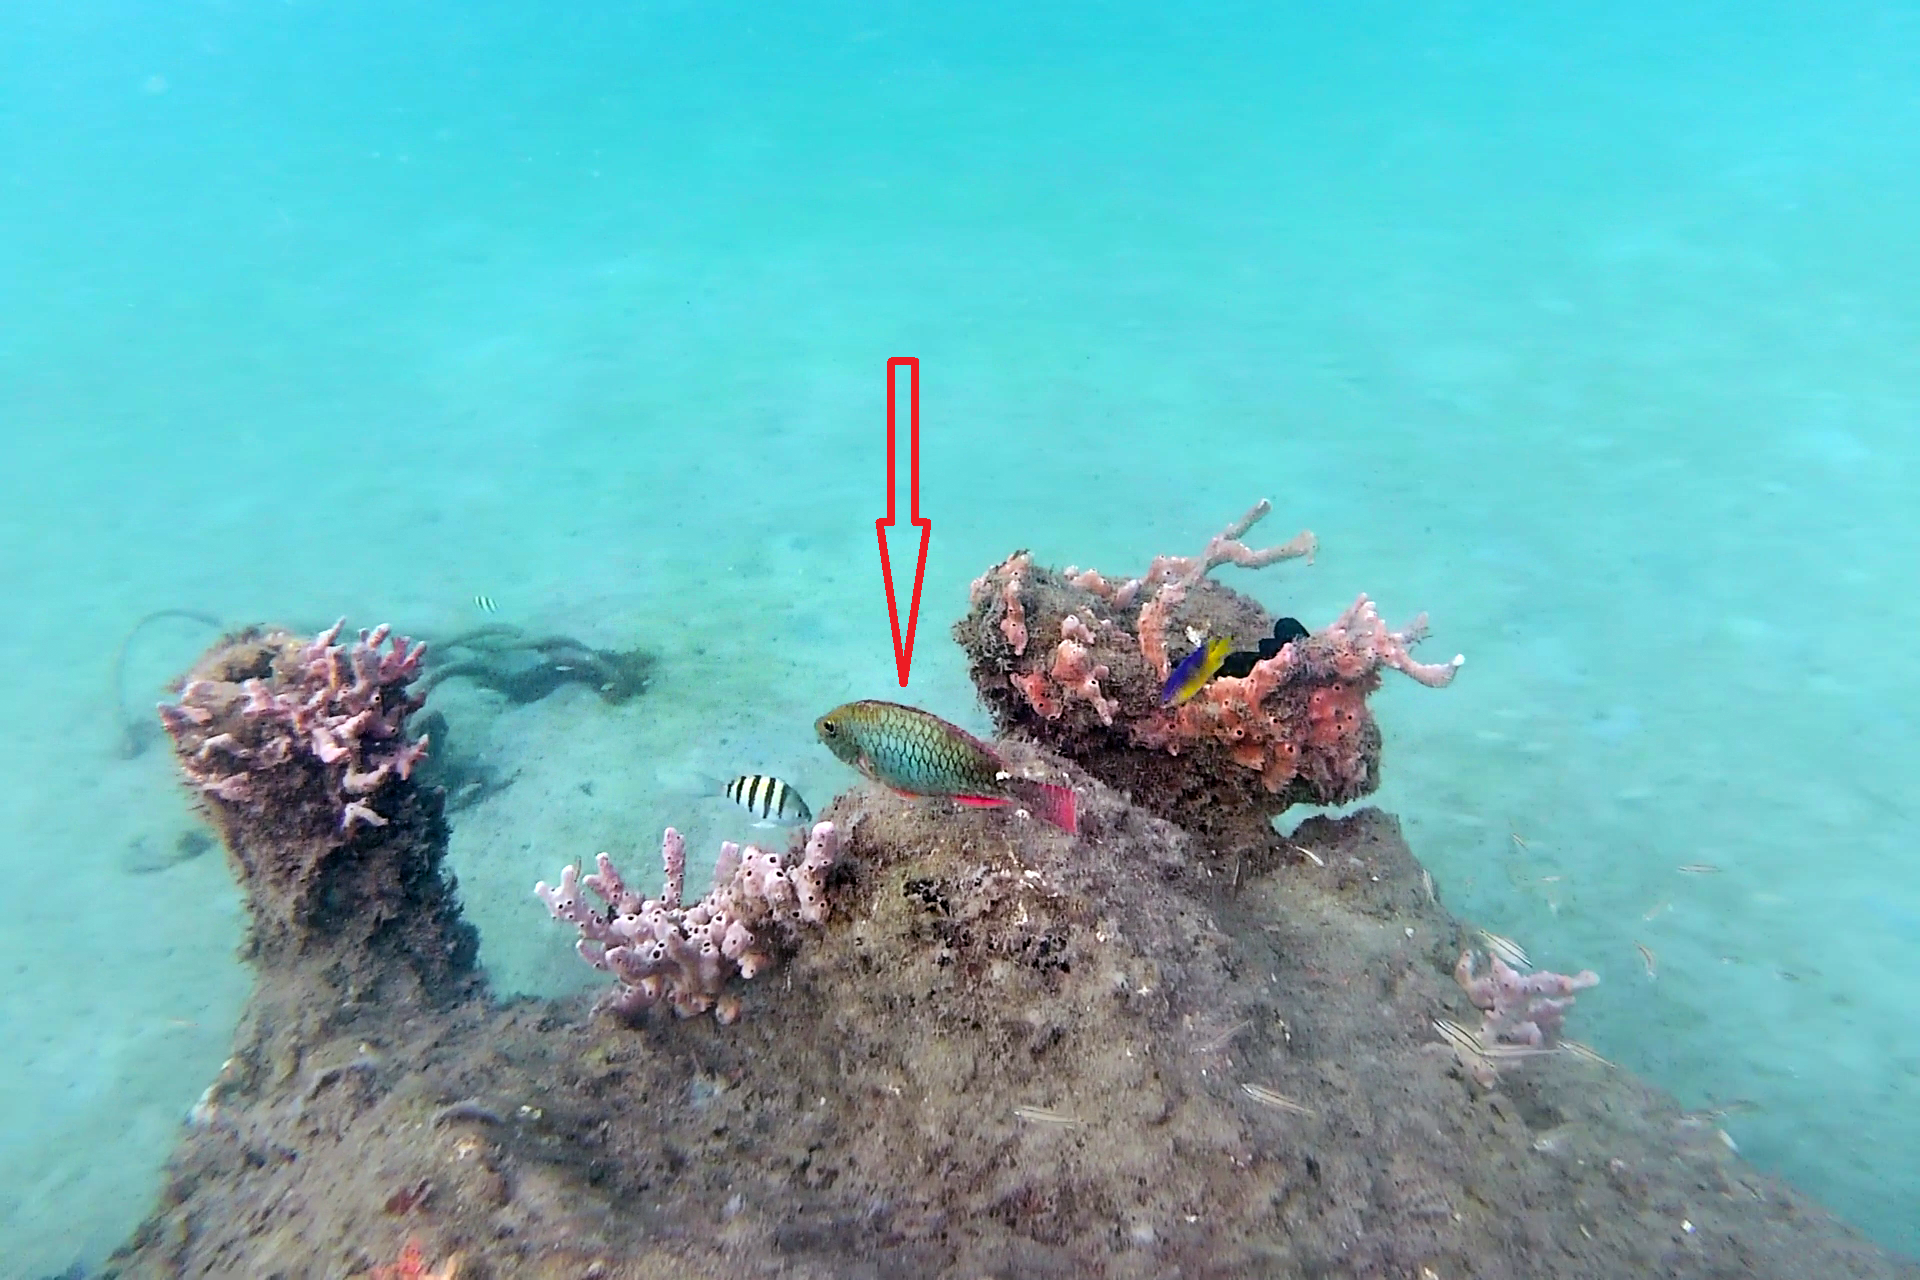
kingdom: Animalia
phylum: Chordata
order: Perciformes
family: Scaridae
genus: Sparisoma
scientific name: Sparisoma aurofrenatum
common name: Redband parrotfish
